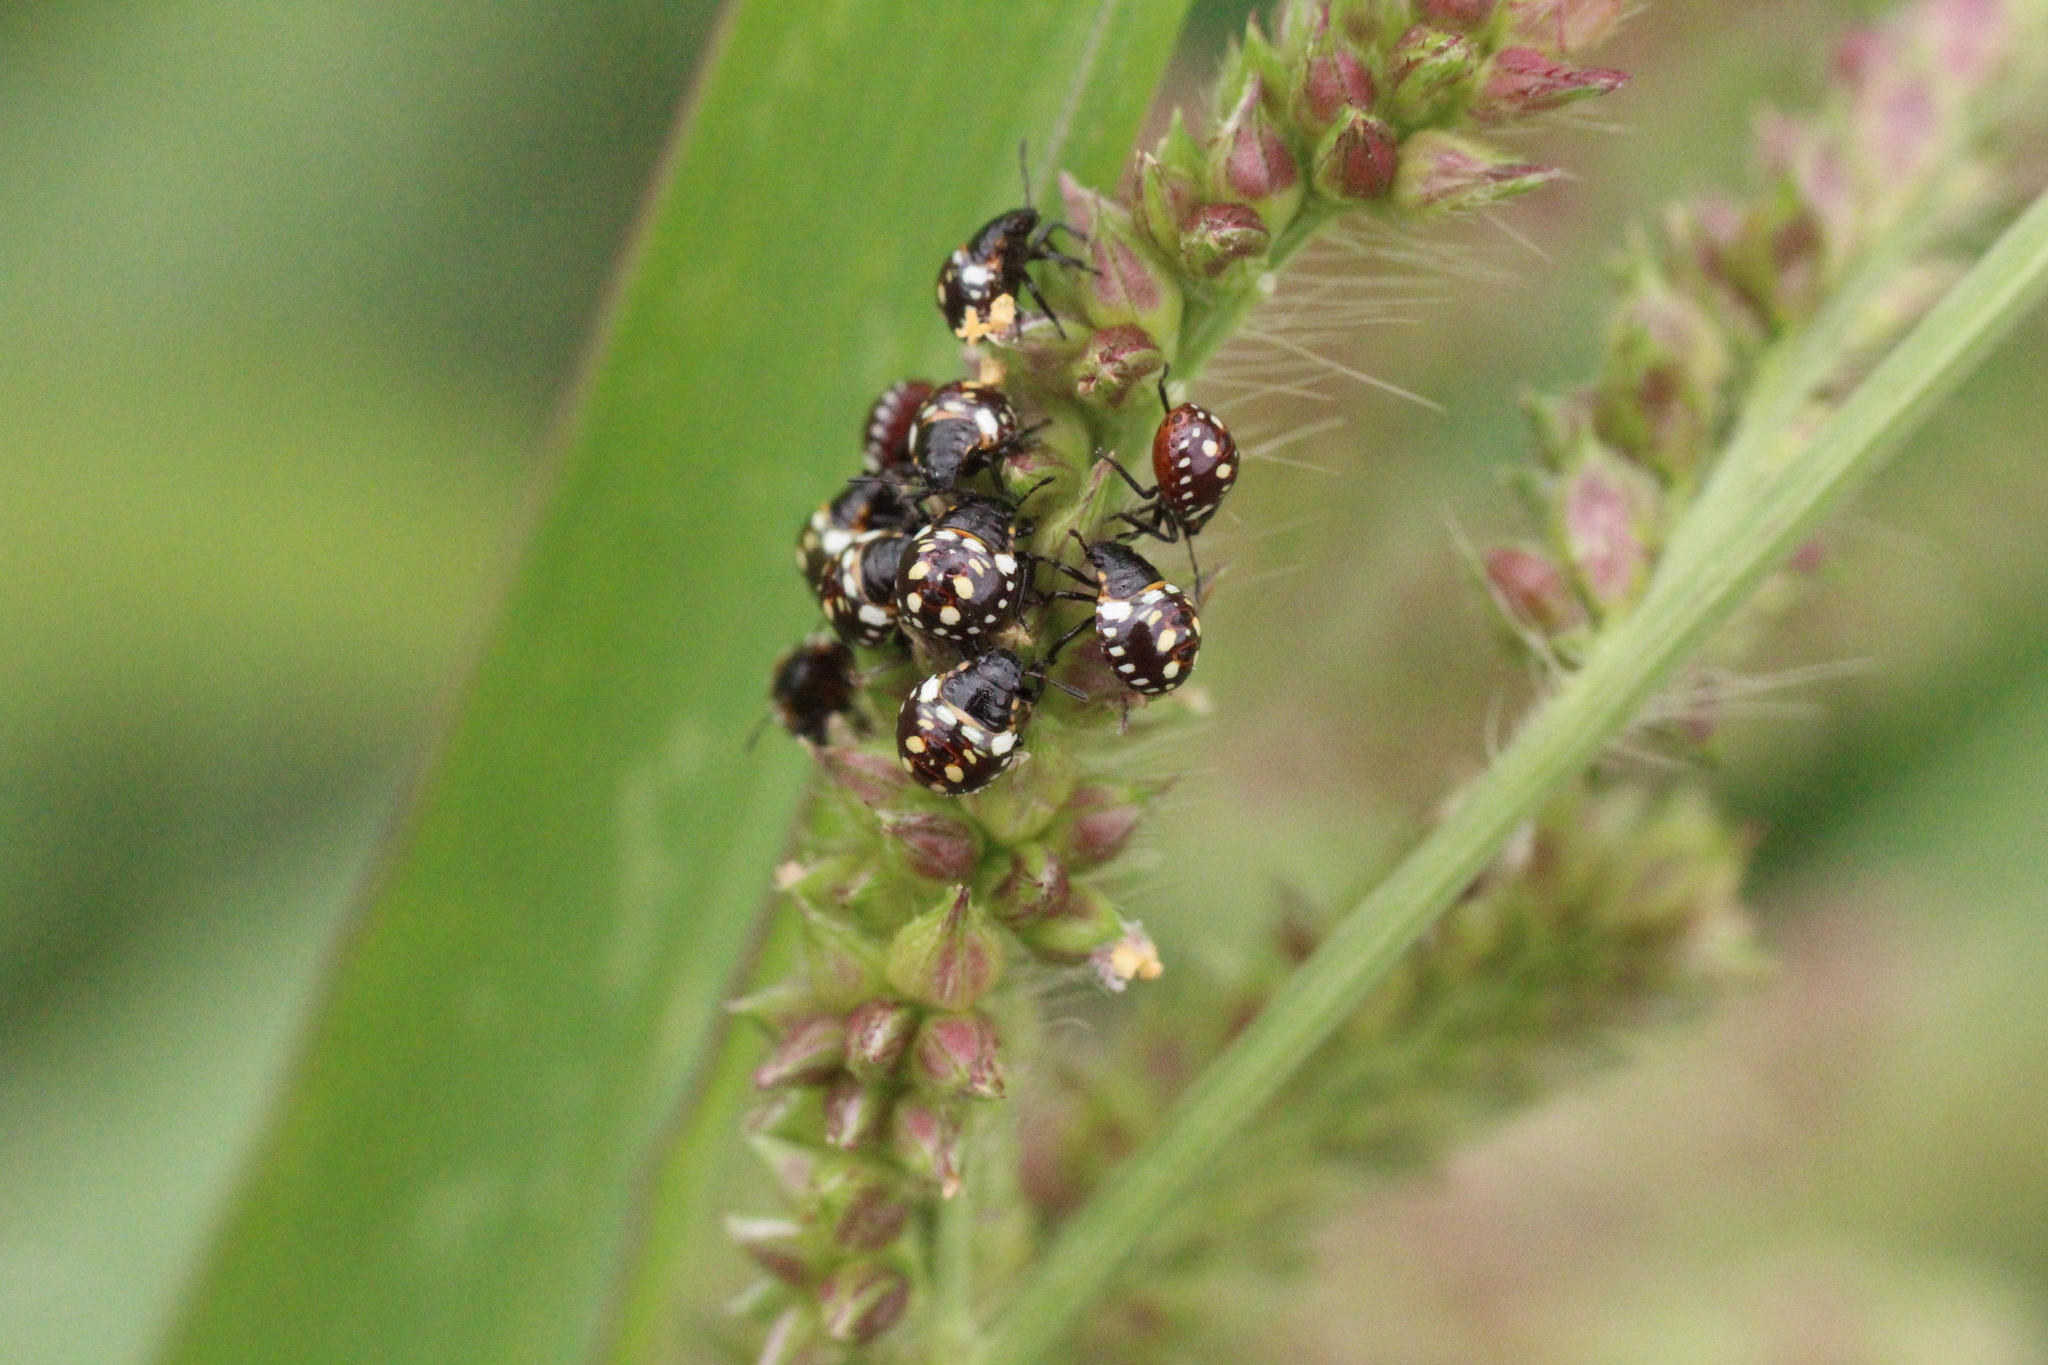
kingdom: Animalia
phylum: Arthropoda
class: Insecta
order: Hemiptera
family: Pentatomidae
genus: Nezara
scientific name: Nezara viridula
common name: Southern green stink bug
